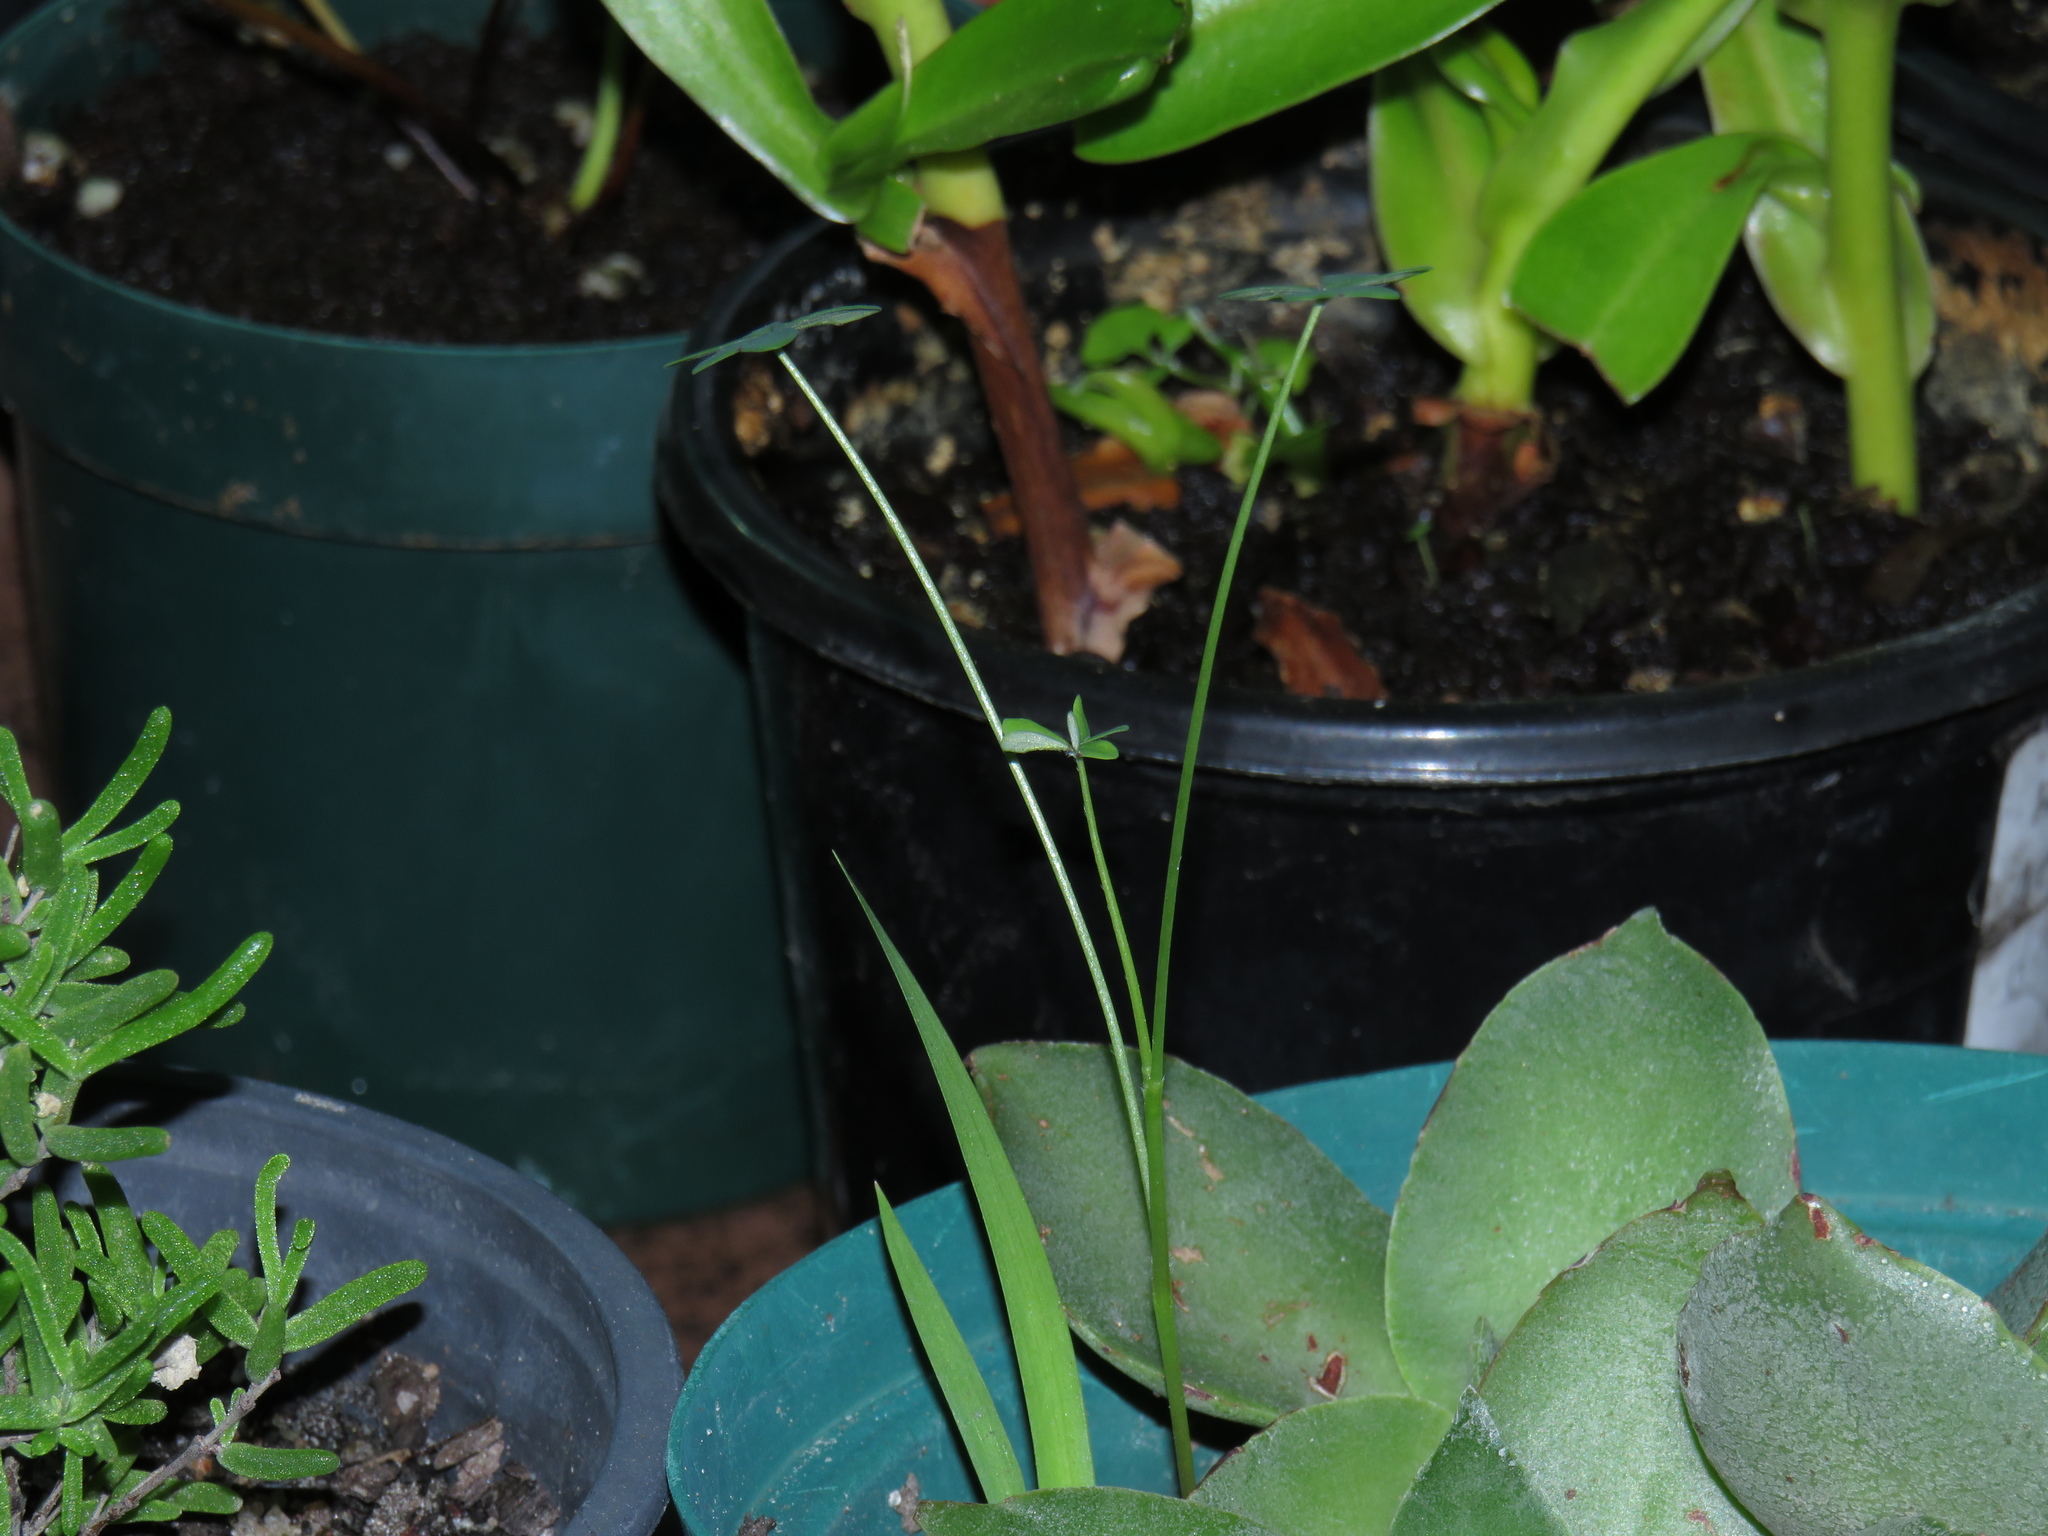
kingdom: Plantae
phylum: Tracheophyta
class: Magnoliopsida
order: Oxalidales
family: Oxalidaceae
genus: Oxalis
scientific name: Oxalis pes-caprae
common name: Bermuda-buttercup
